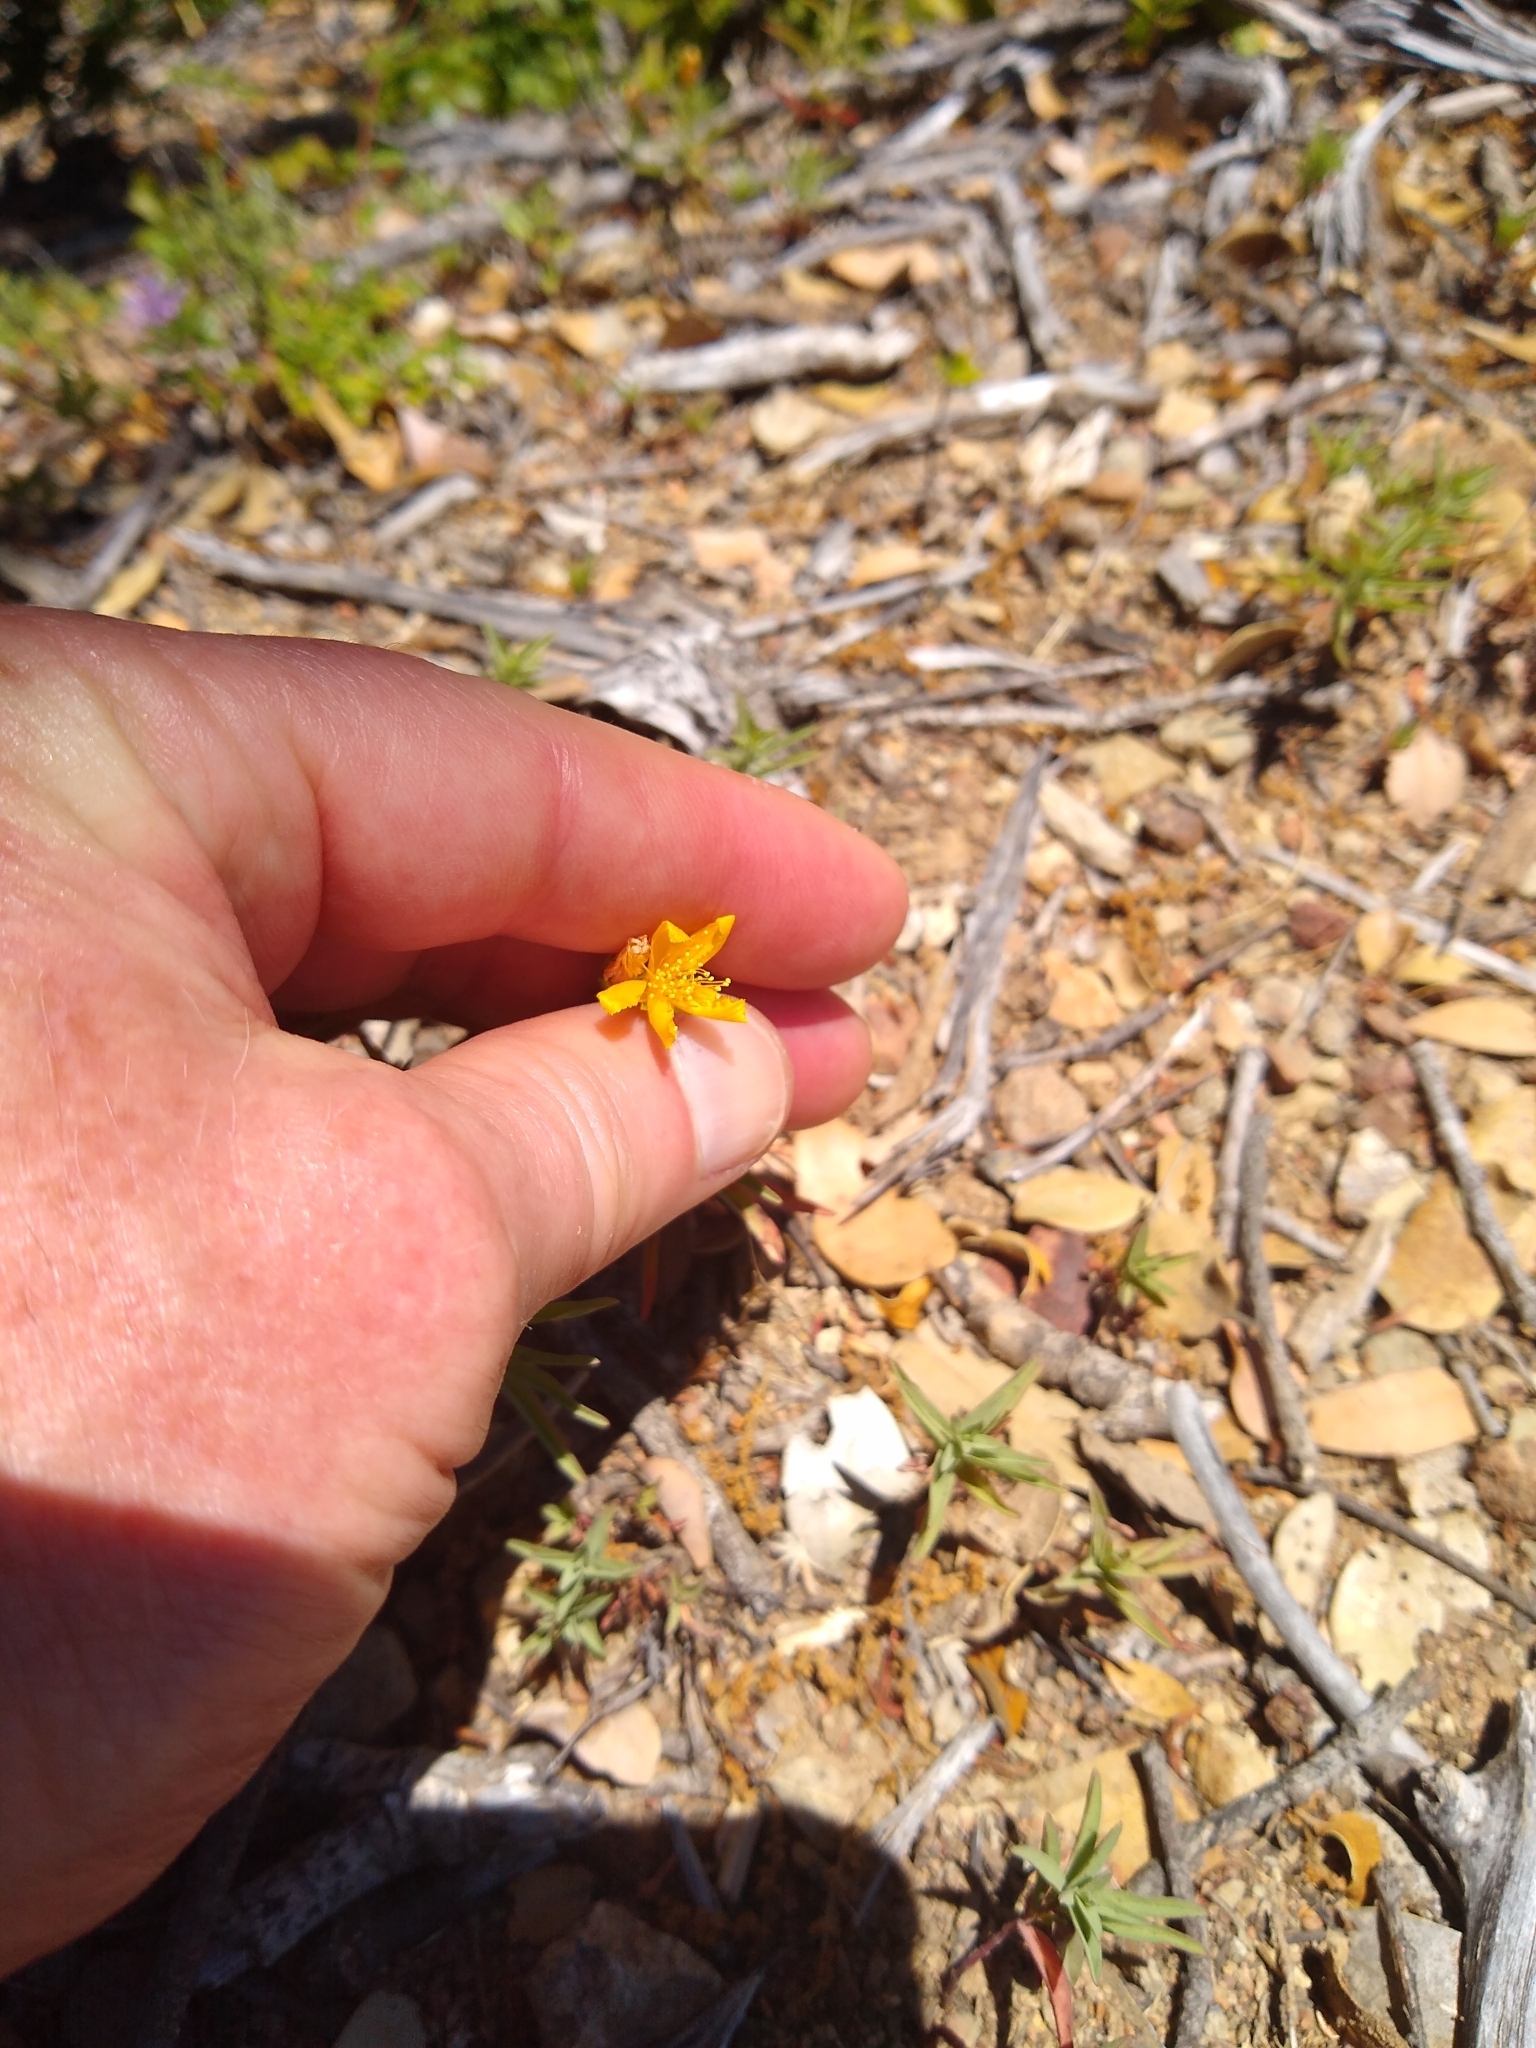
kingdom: Plantae
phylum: Tracheophyta
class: Magnoliopsida
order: Malpighiales
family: Hypericaceae
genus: Hypericum
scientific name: Hypericum concinnum
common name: Gold-wire
